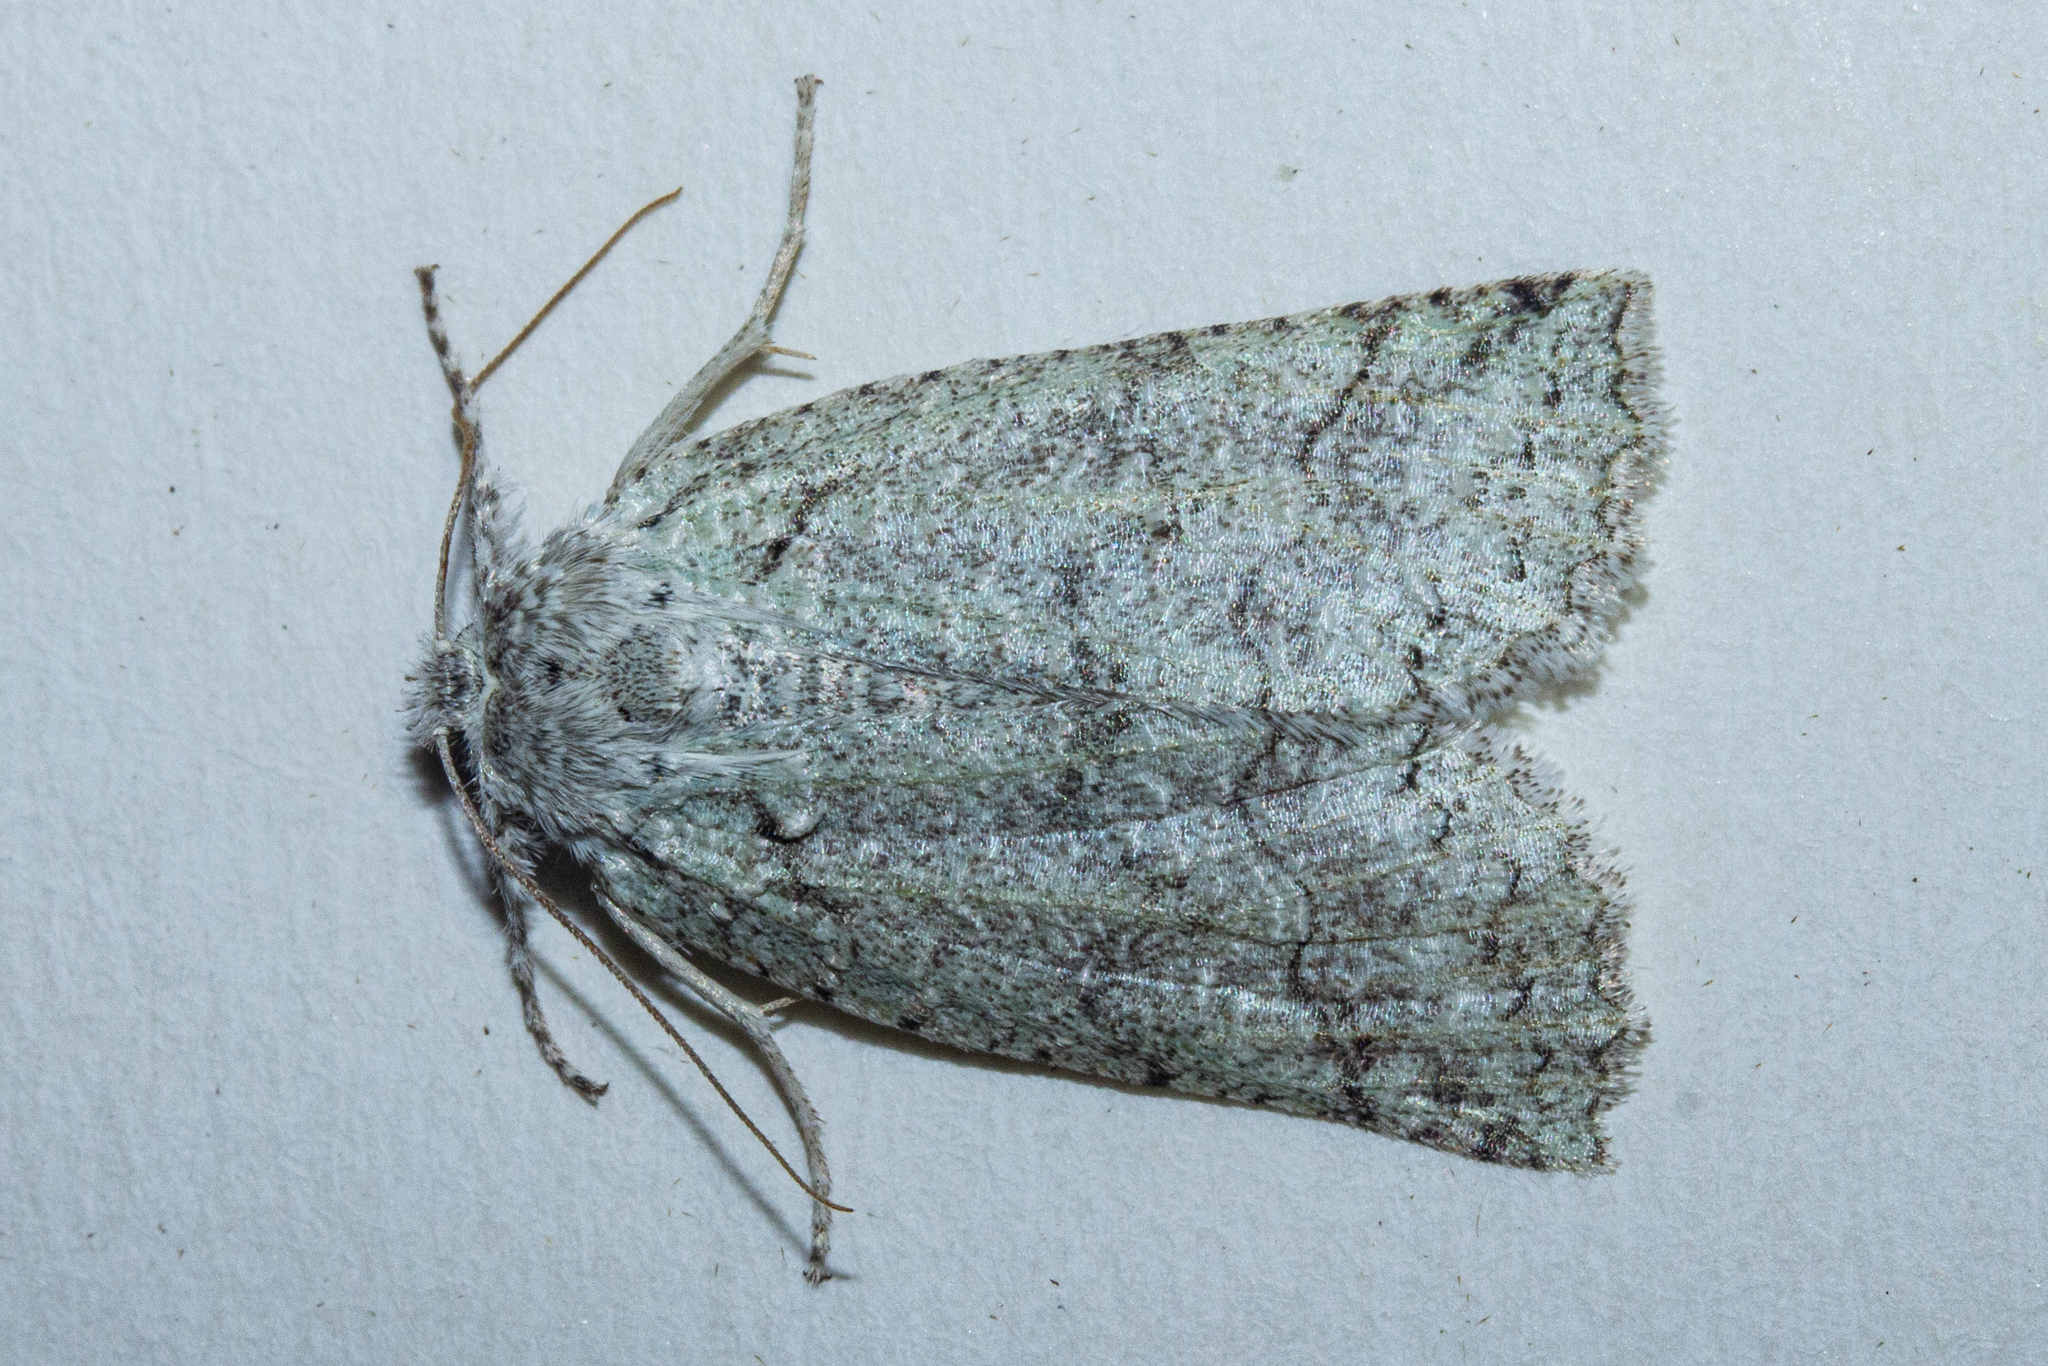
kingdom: Animalia
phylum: Arthropoda
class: Insecta
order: Lepidoptera
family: Geometridae
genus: Declana
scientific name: Declana floccosa
